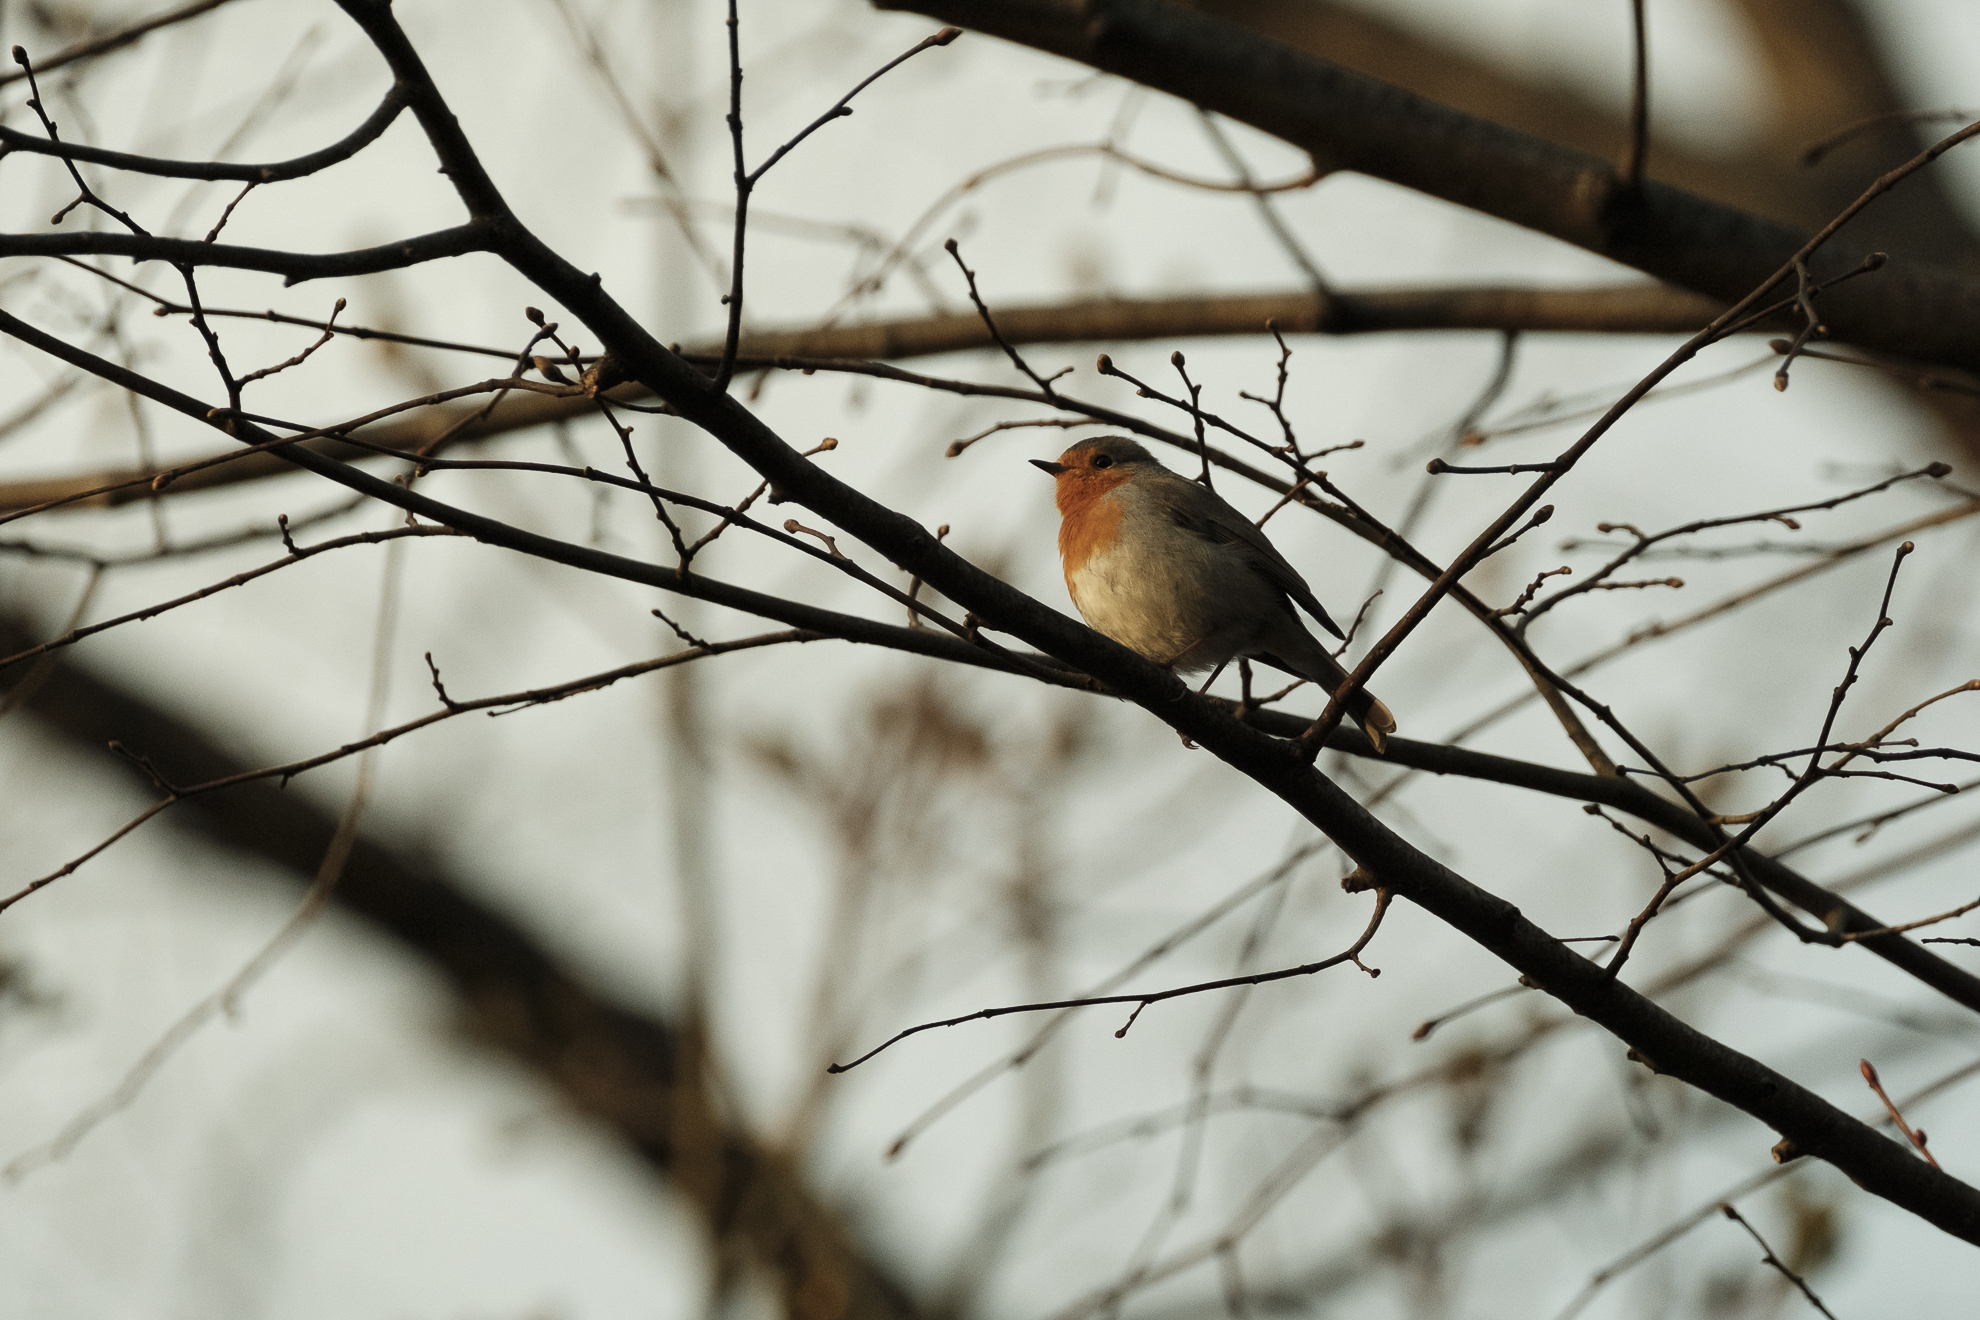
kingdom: Animalia
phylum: Chordata
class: Aves
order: Passeriformes
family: Muscicapidae
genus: Erithacus
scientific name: Erithacus rubecula
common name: European robin
